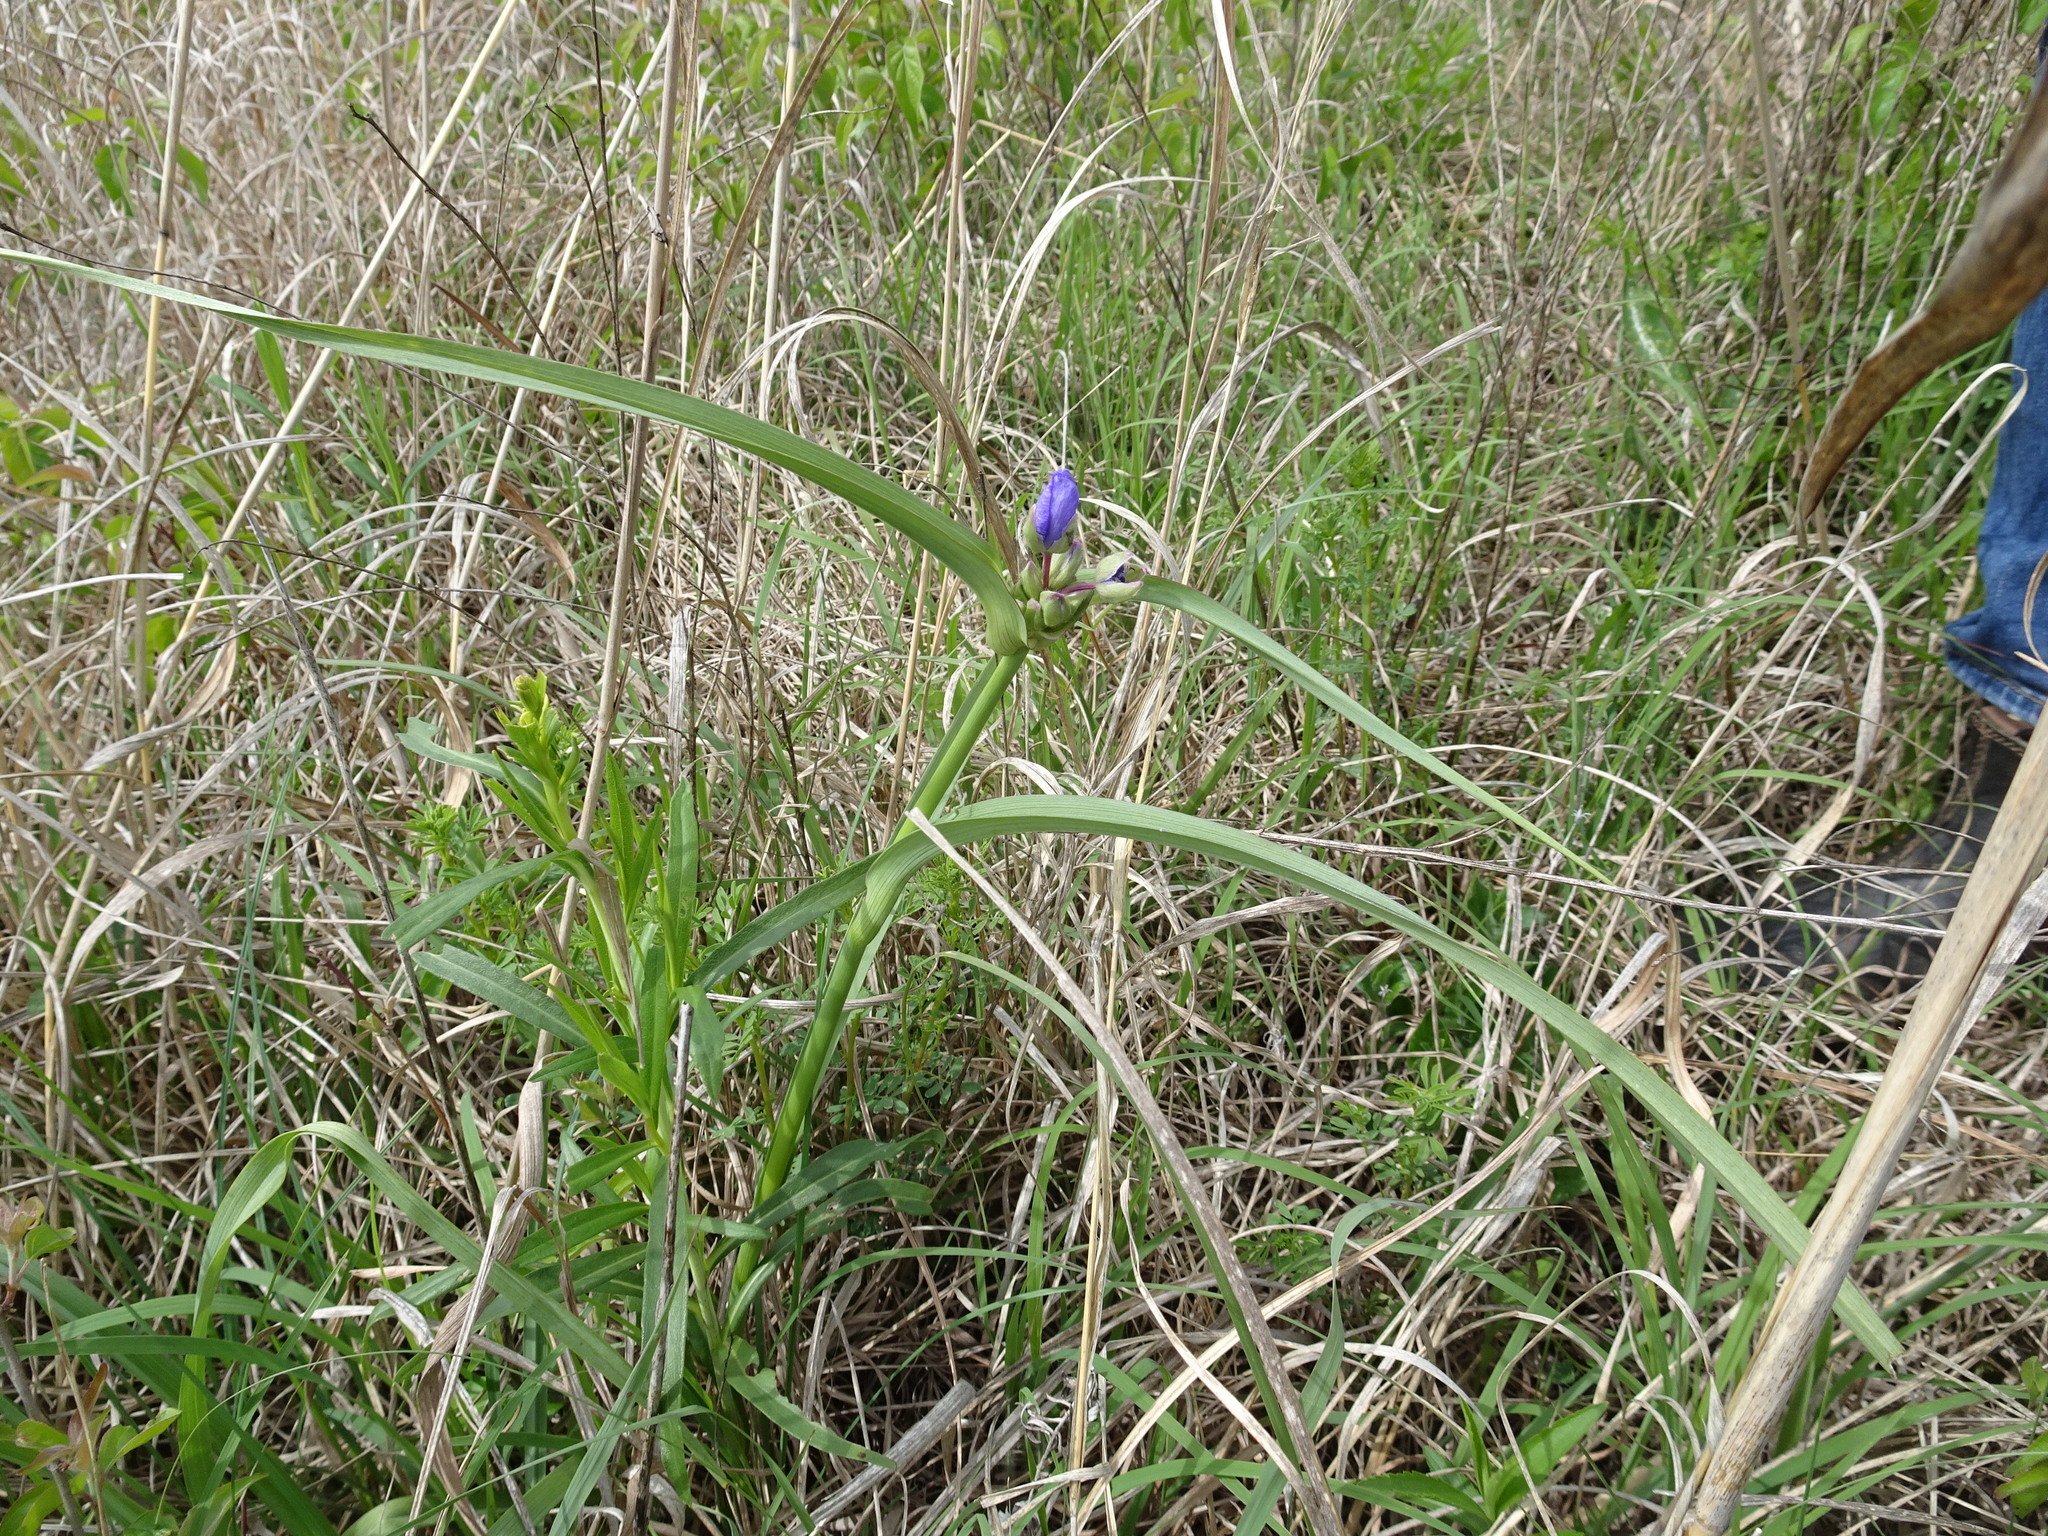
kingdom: Plantae
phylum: Tracheophyta
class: Liliopsida
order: Commelinales
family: Commelinaceae
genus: Tradescantia
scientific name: Tradescantia bracteata
